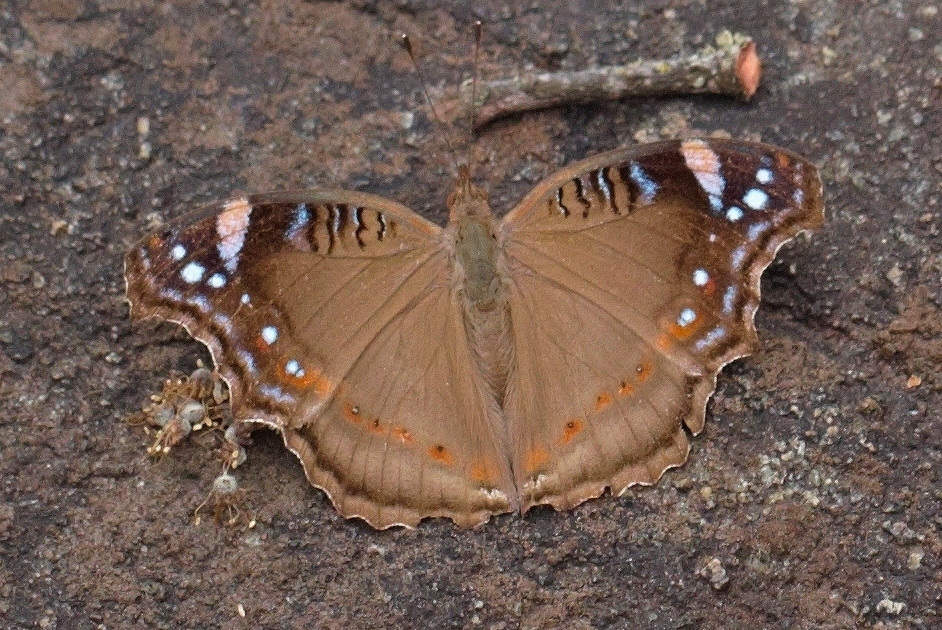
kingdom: Animalia
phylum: Arthropoda
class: Insecta
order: Lepidoptera
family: Nymphalidae
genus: Junonia
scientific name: Junonia archesia
